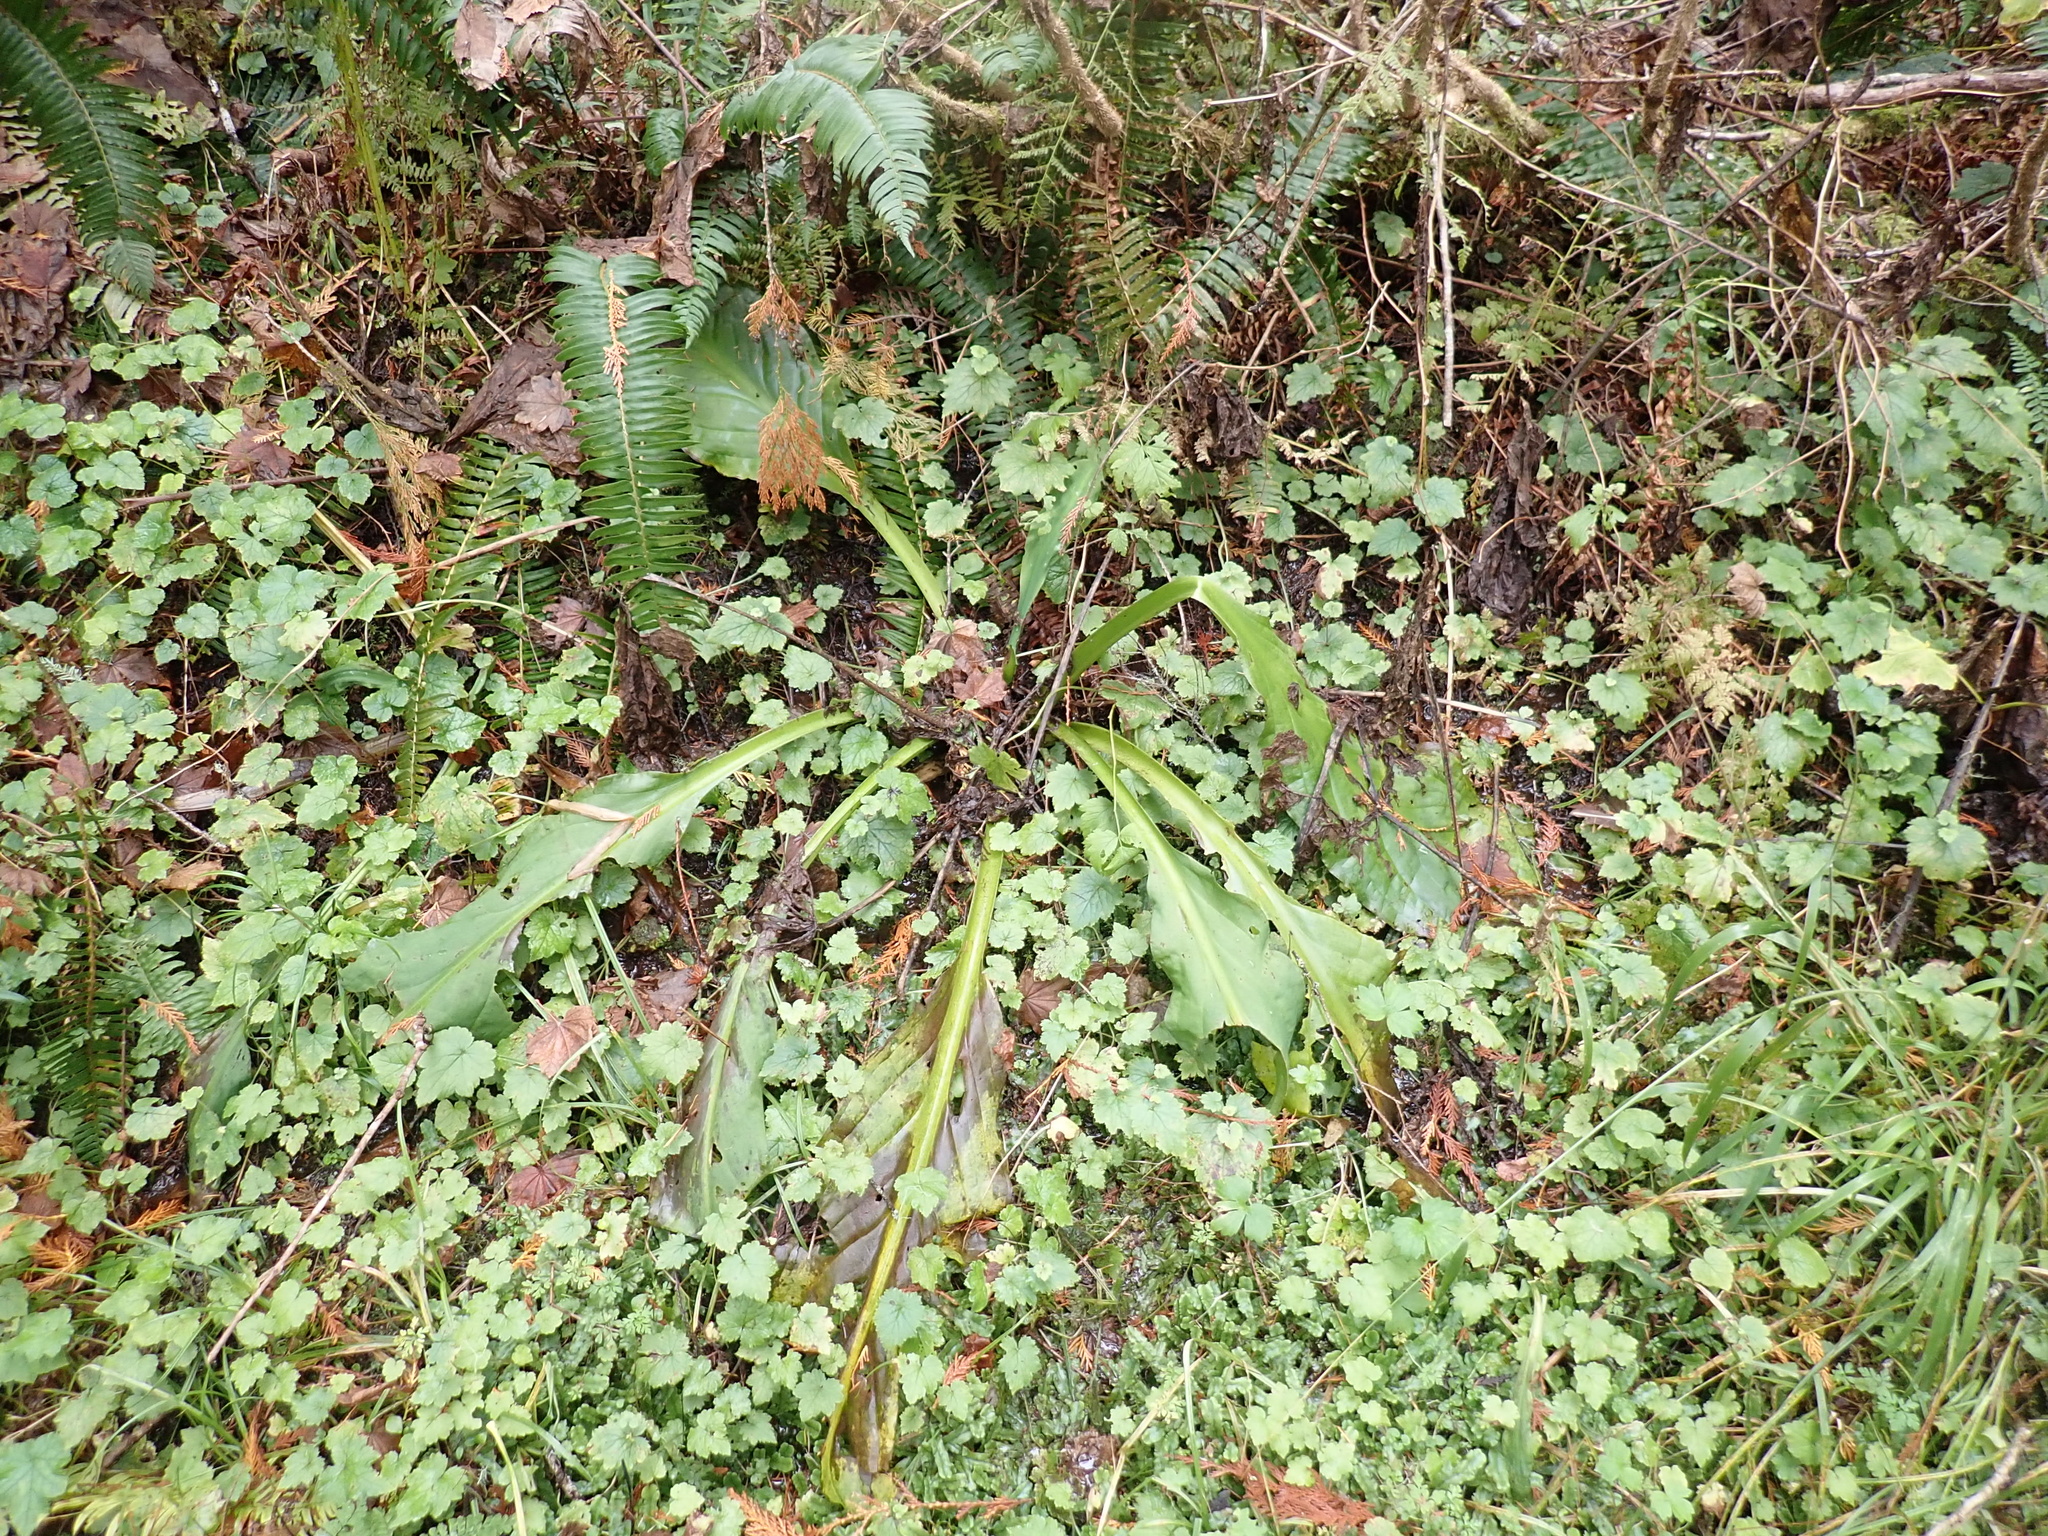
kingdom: Plantae
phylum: Tracheophyta
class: Liliopsida
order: Alismatales
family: Araceae
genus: Lysichiton
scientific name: Lysichiton americanus
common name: American skunk cabbage
